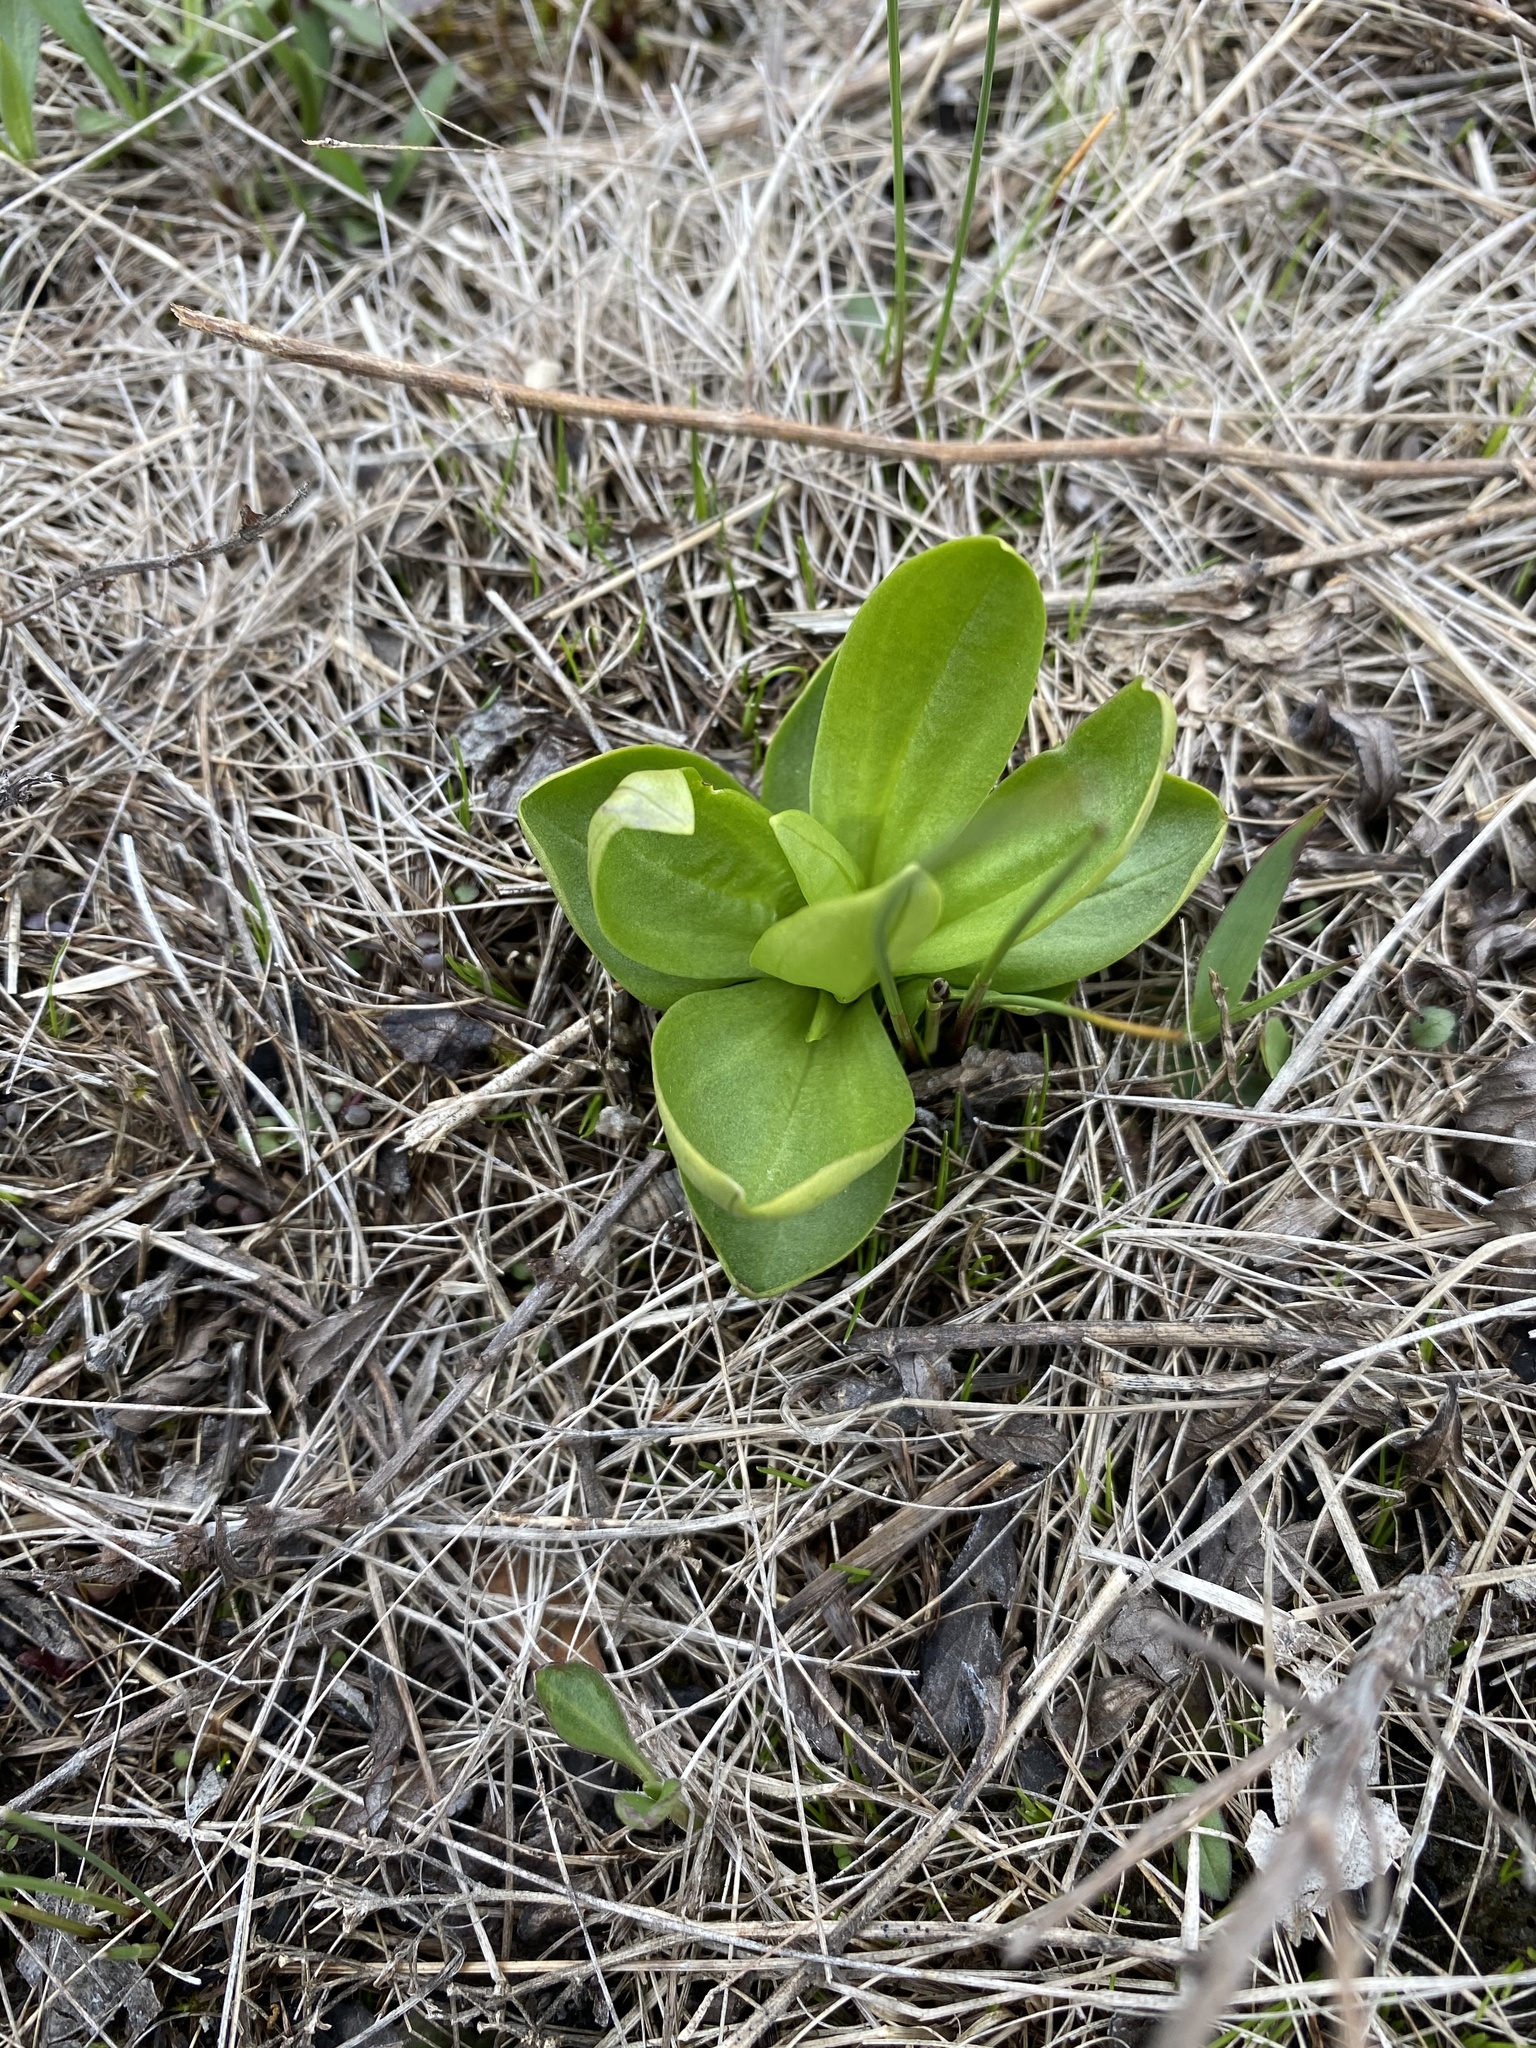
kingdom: Plantae
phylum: Tracheophyta
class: Magnoliopsida
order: Celastrales
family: Parnassiaceae
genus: Parnassia
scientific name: Parnassia glauca
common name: American grass-of-parnassus
